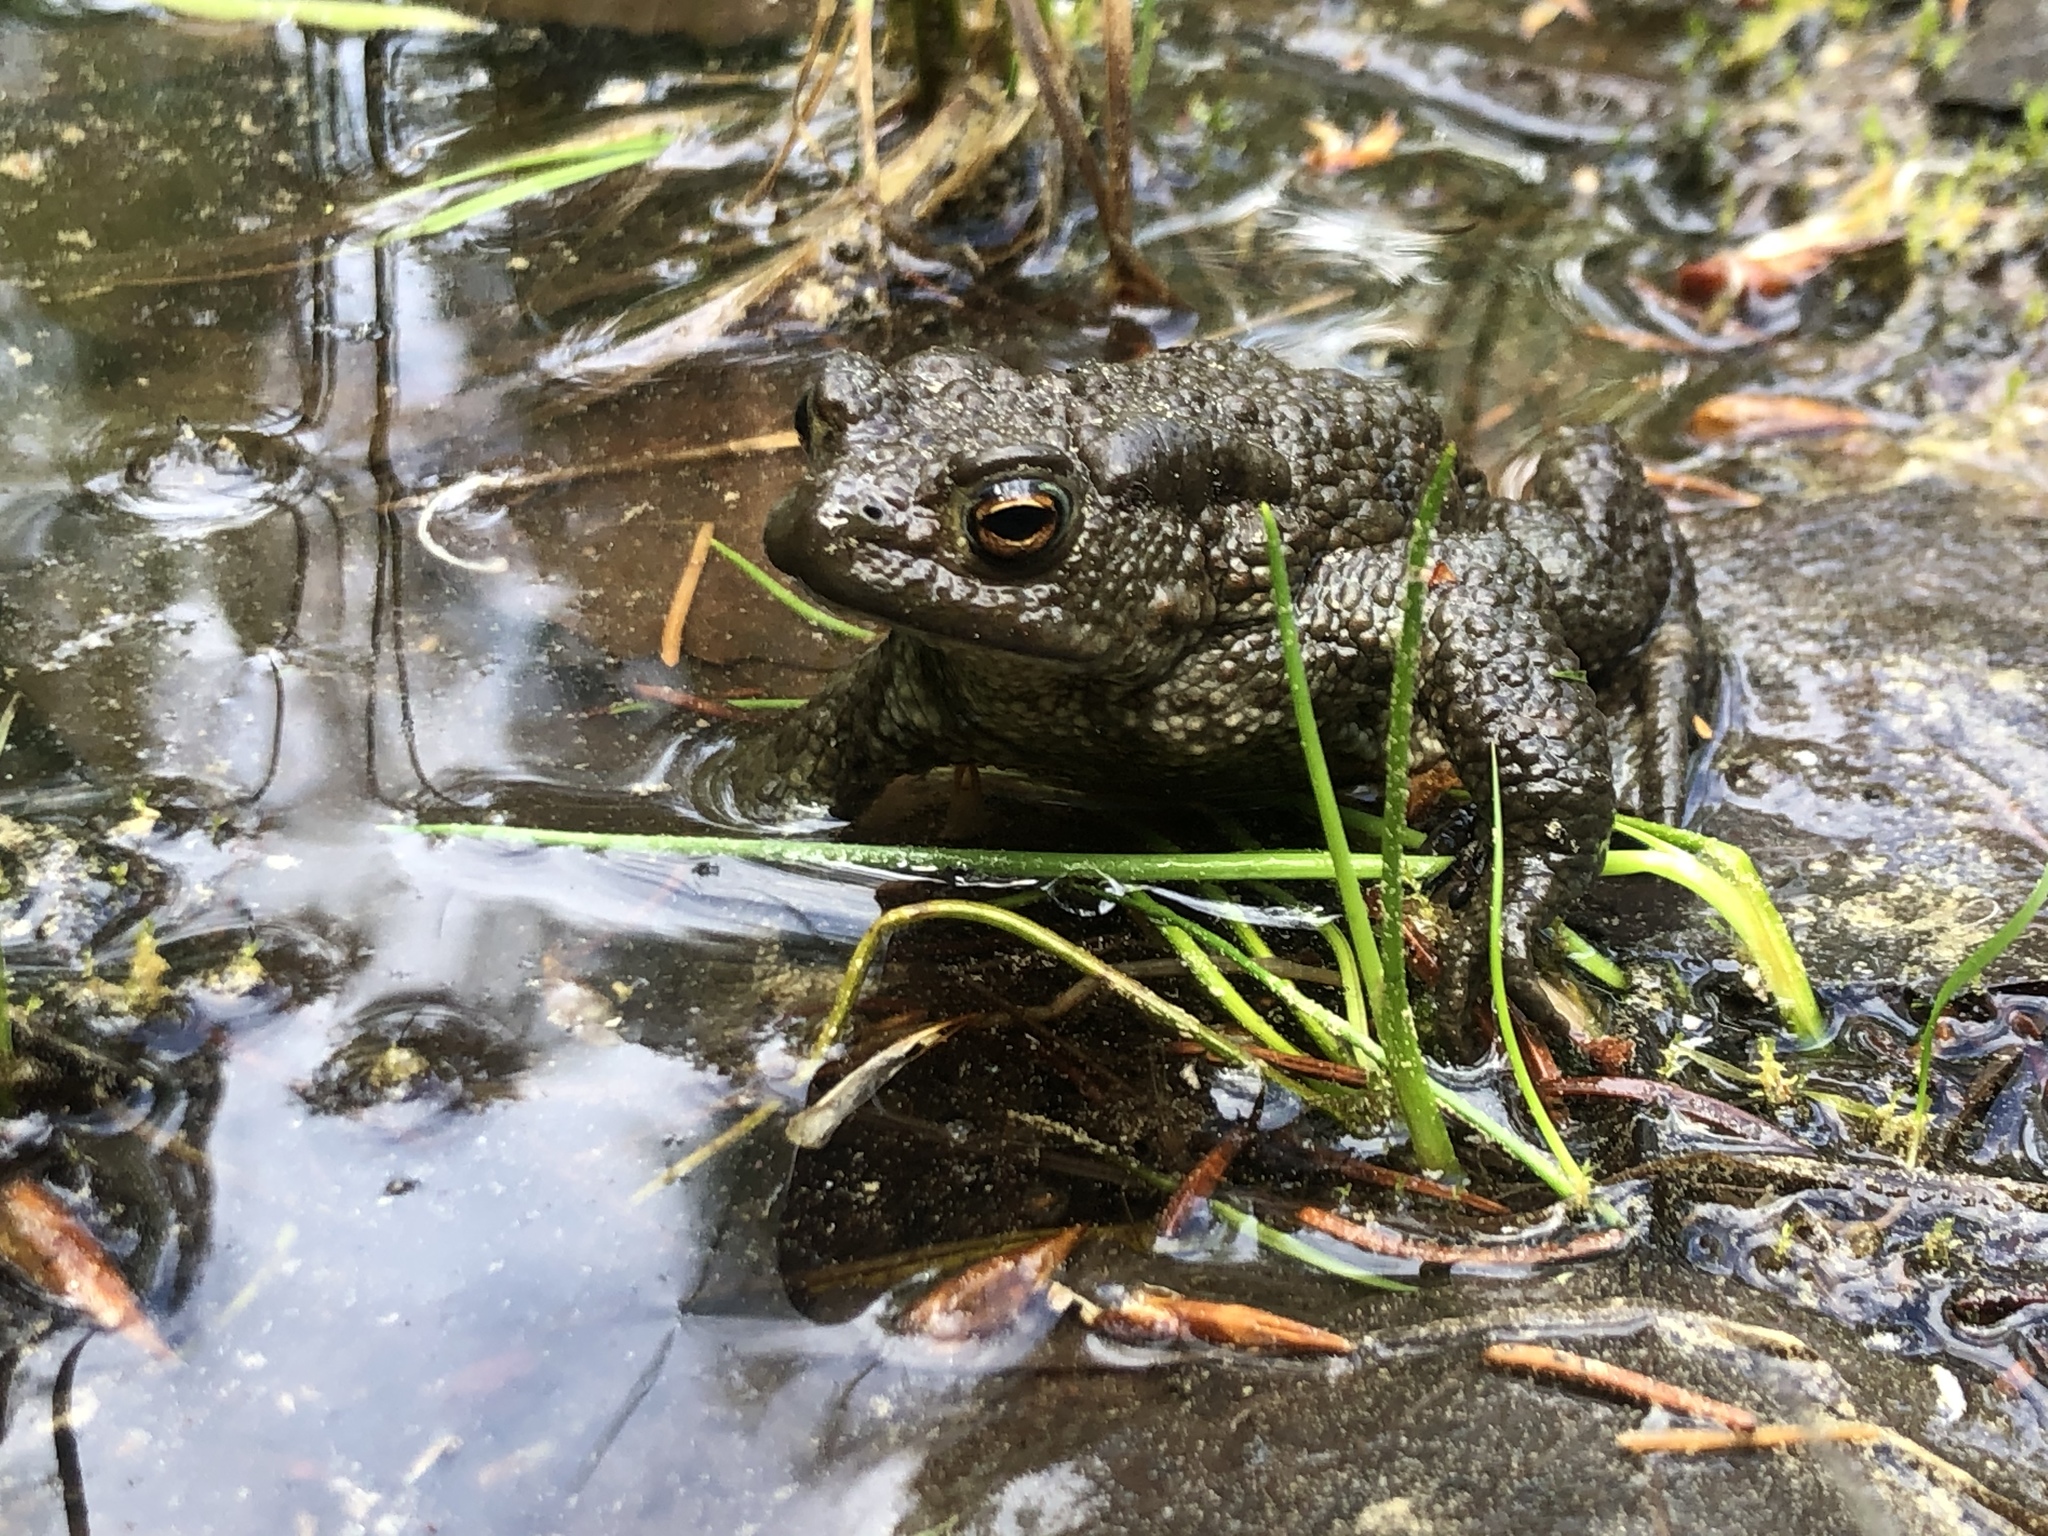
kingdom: Animalia
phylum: Chordata
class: Amphibia
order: Anura
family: Bufonidae
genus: Bufo
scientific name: Bufo bufo
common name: Common toad
